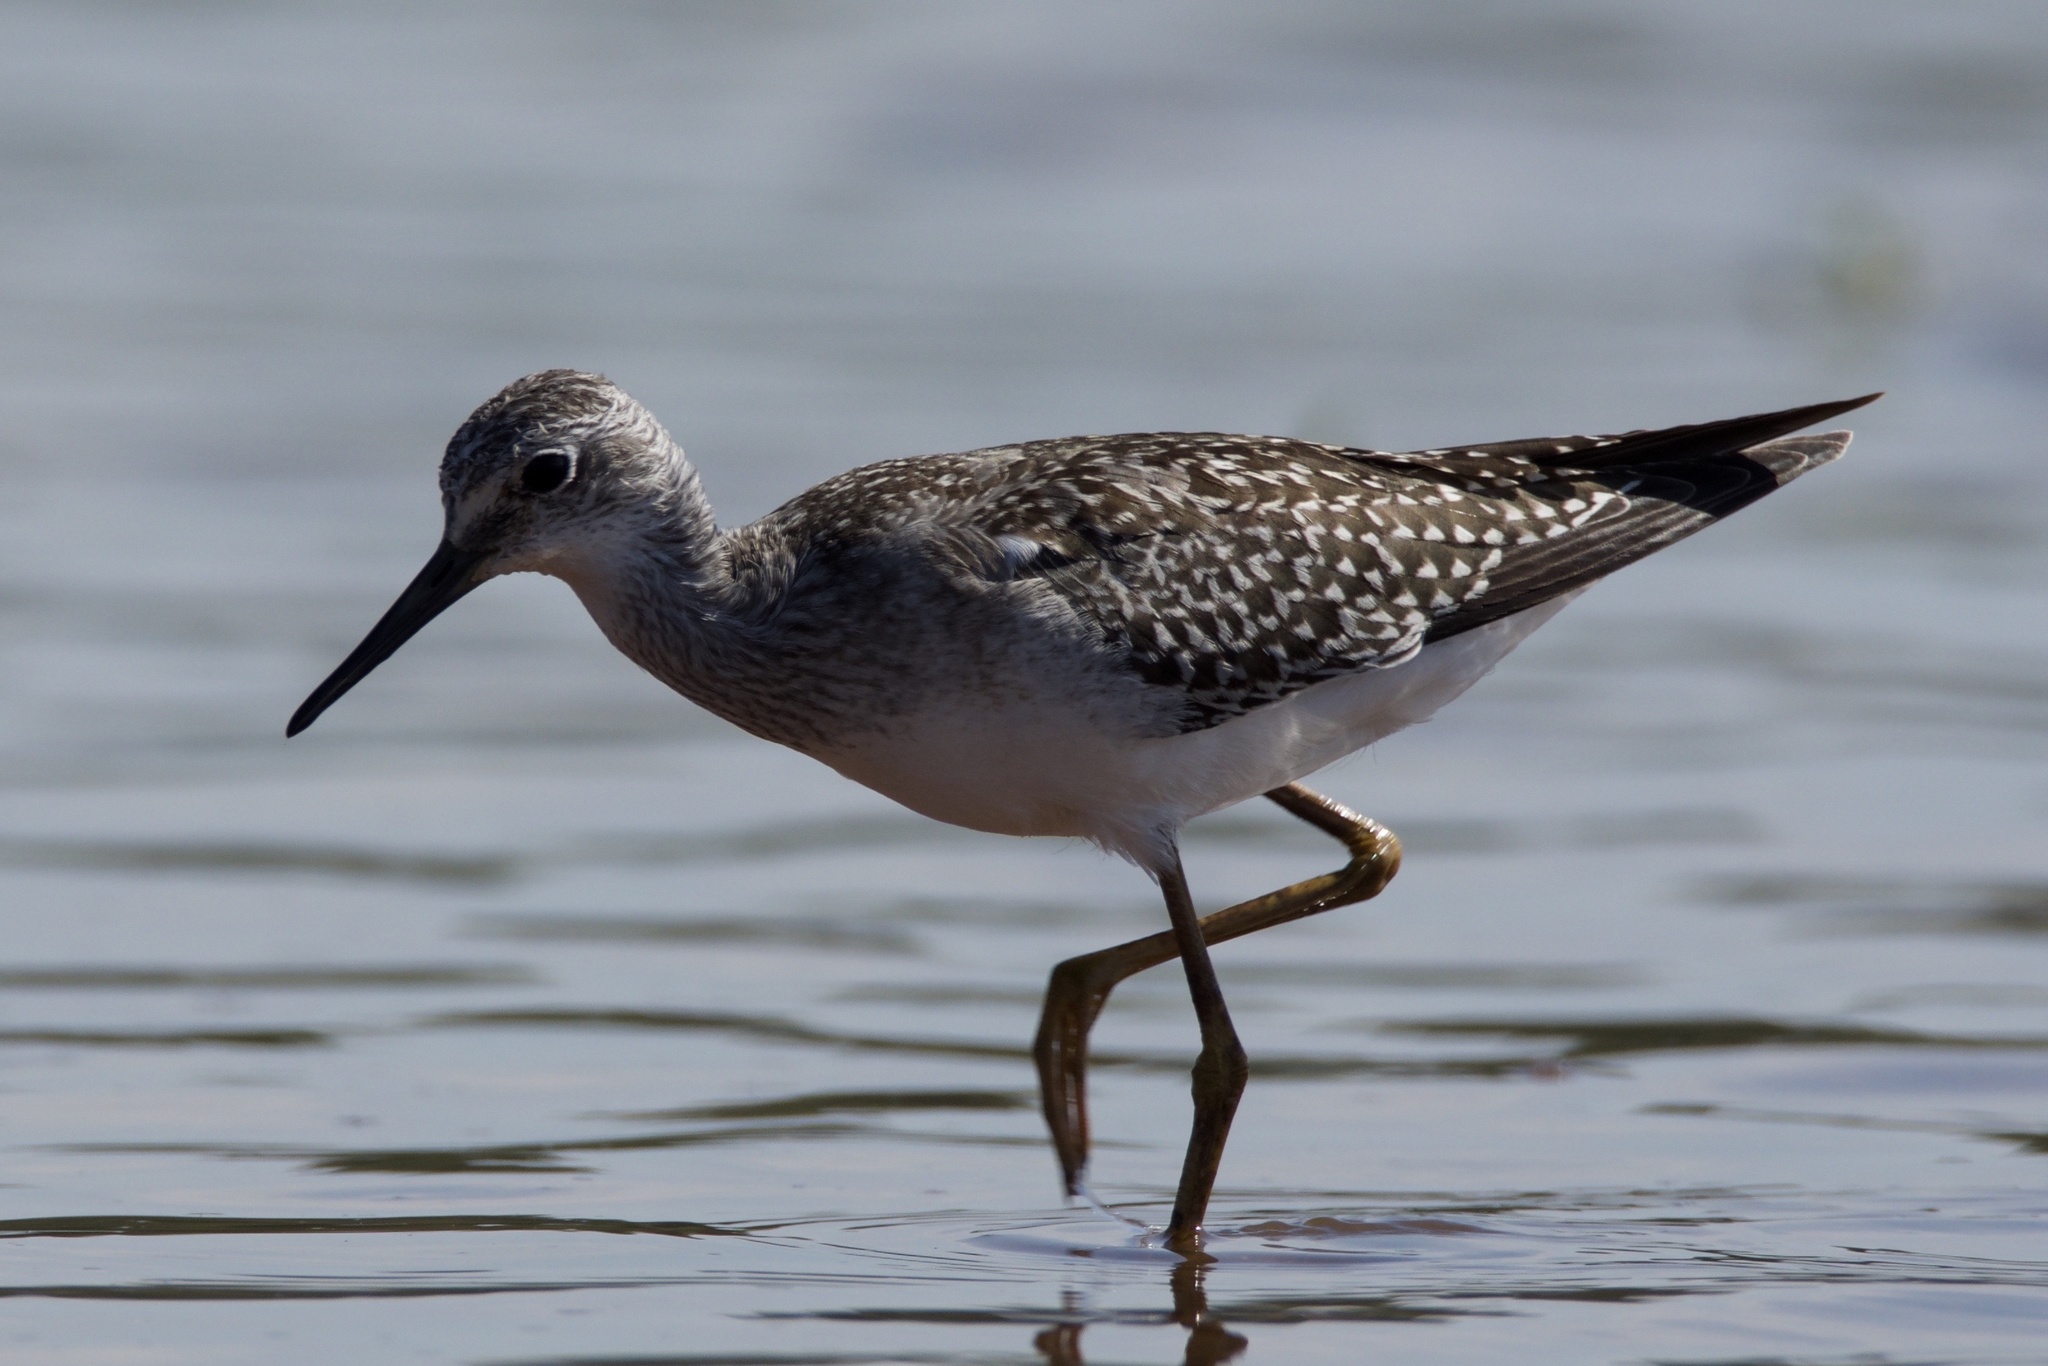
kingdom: Animalia
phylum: Chordata
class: Aves
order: Charadriiformes
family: Scolopacidae
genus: Tringa
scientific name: Tringa flavipes
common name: Lesser yellowlegs
